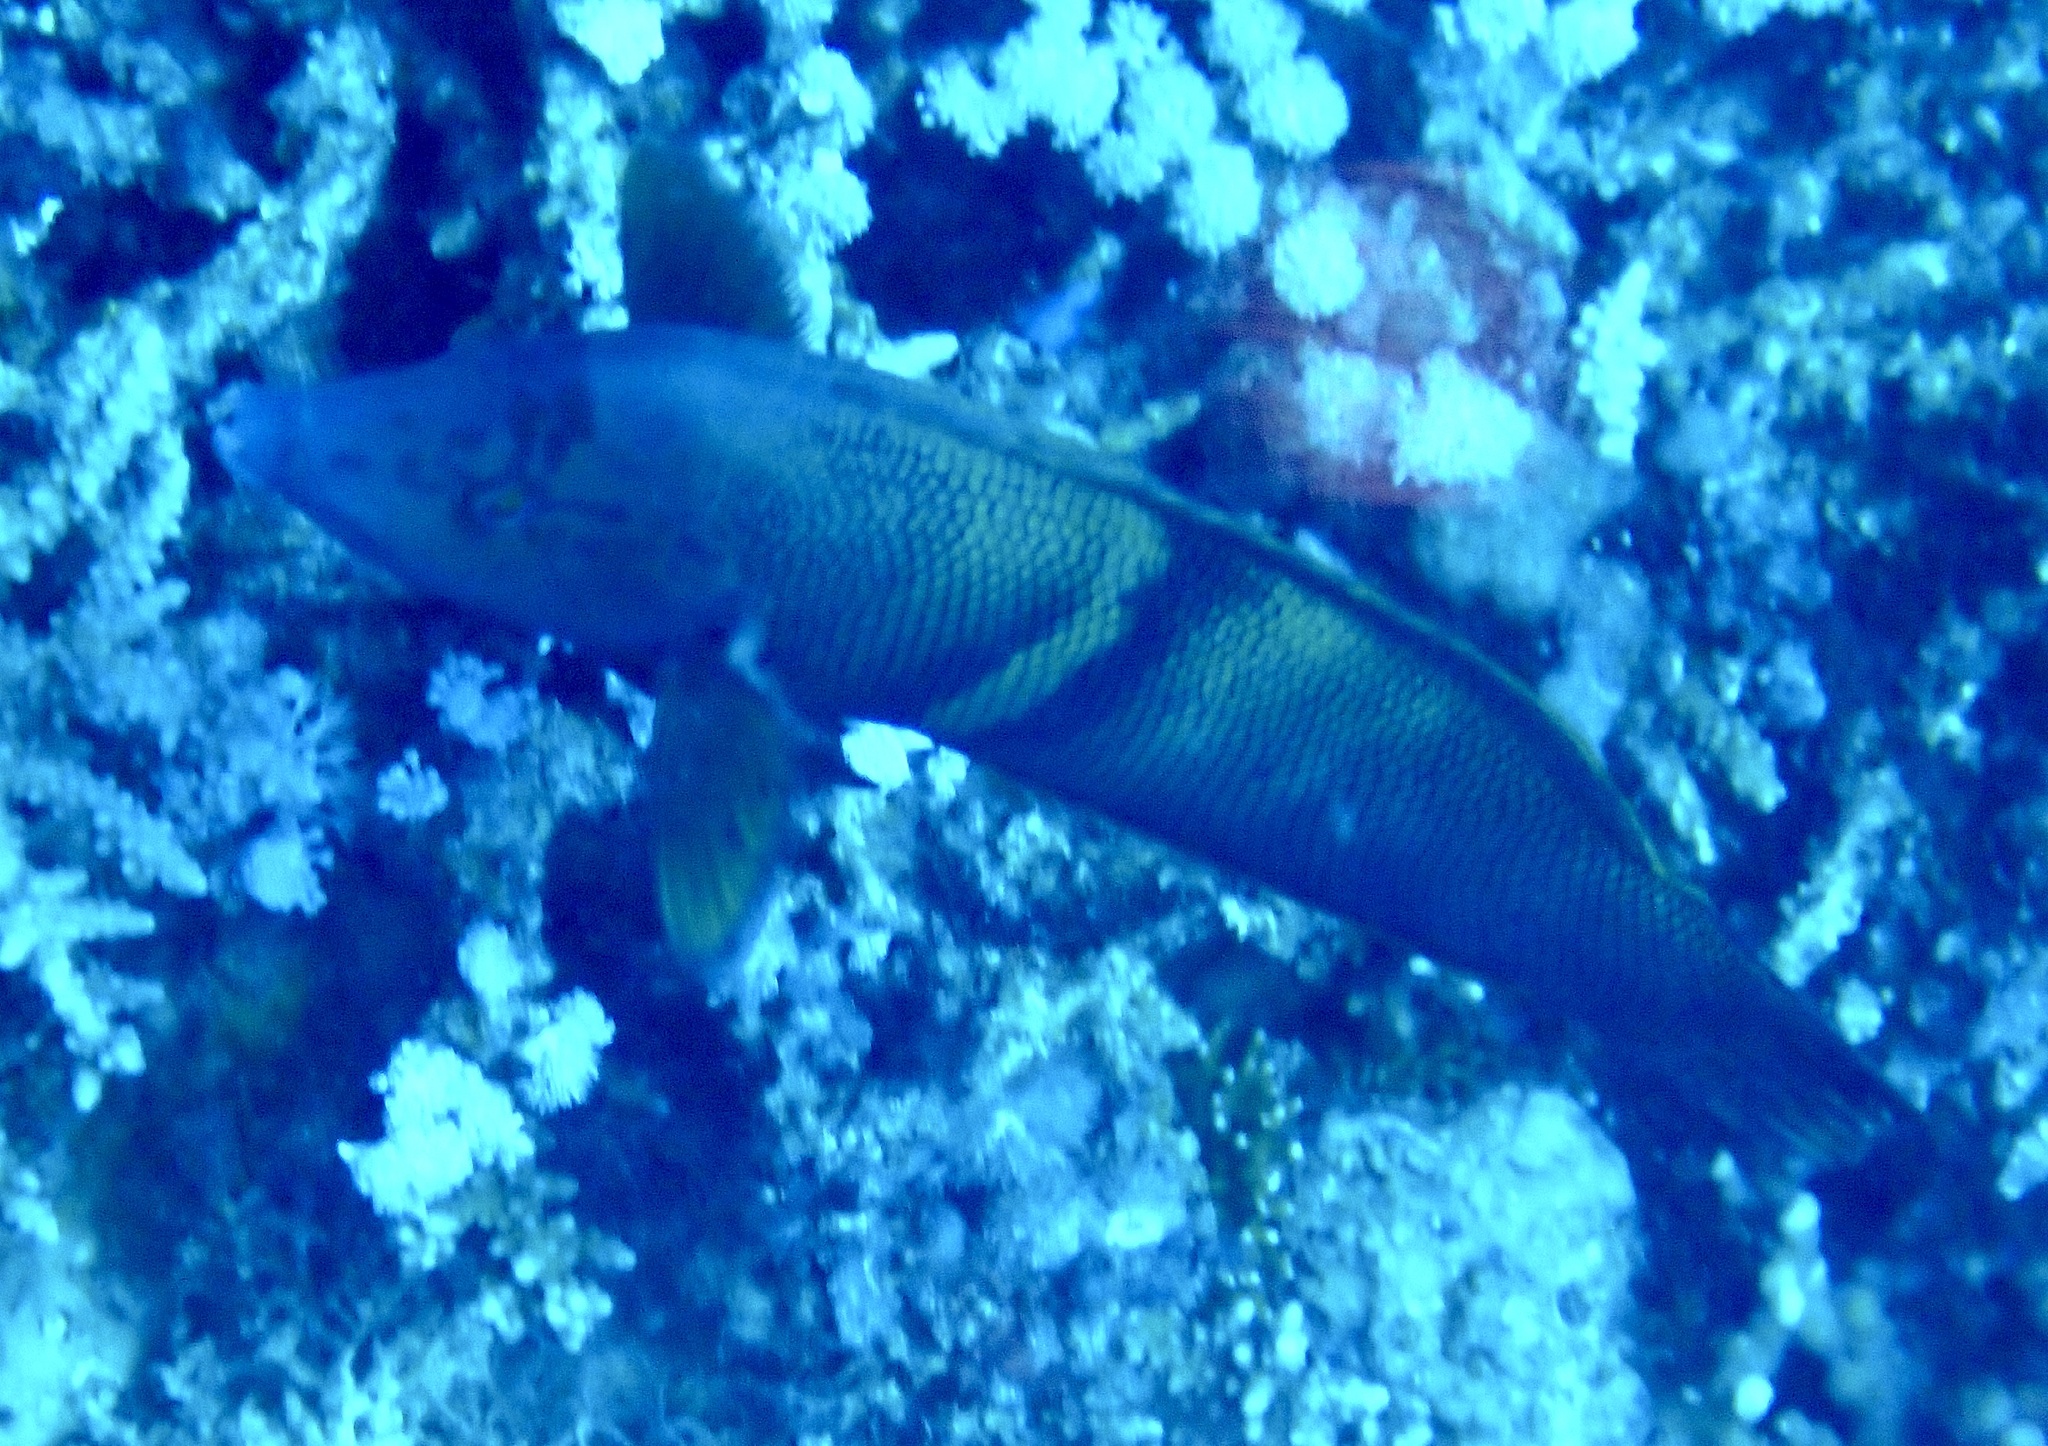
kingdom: Animalia
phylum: Chordata
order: Perciformes
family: Labridae
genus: Coris
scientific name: Coris cuvieri
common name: African coris
